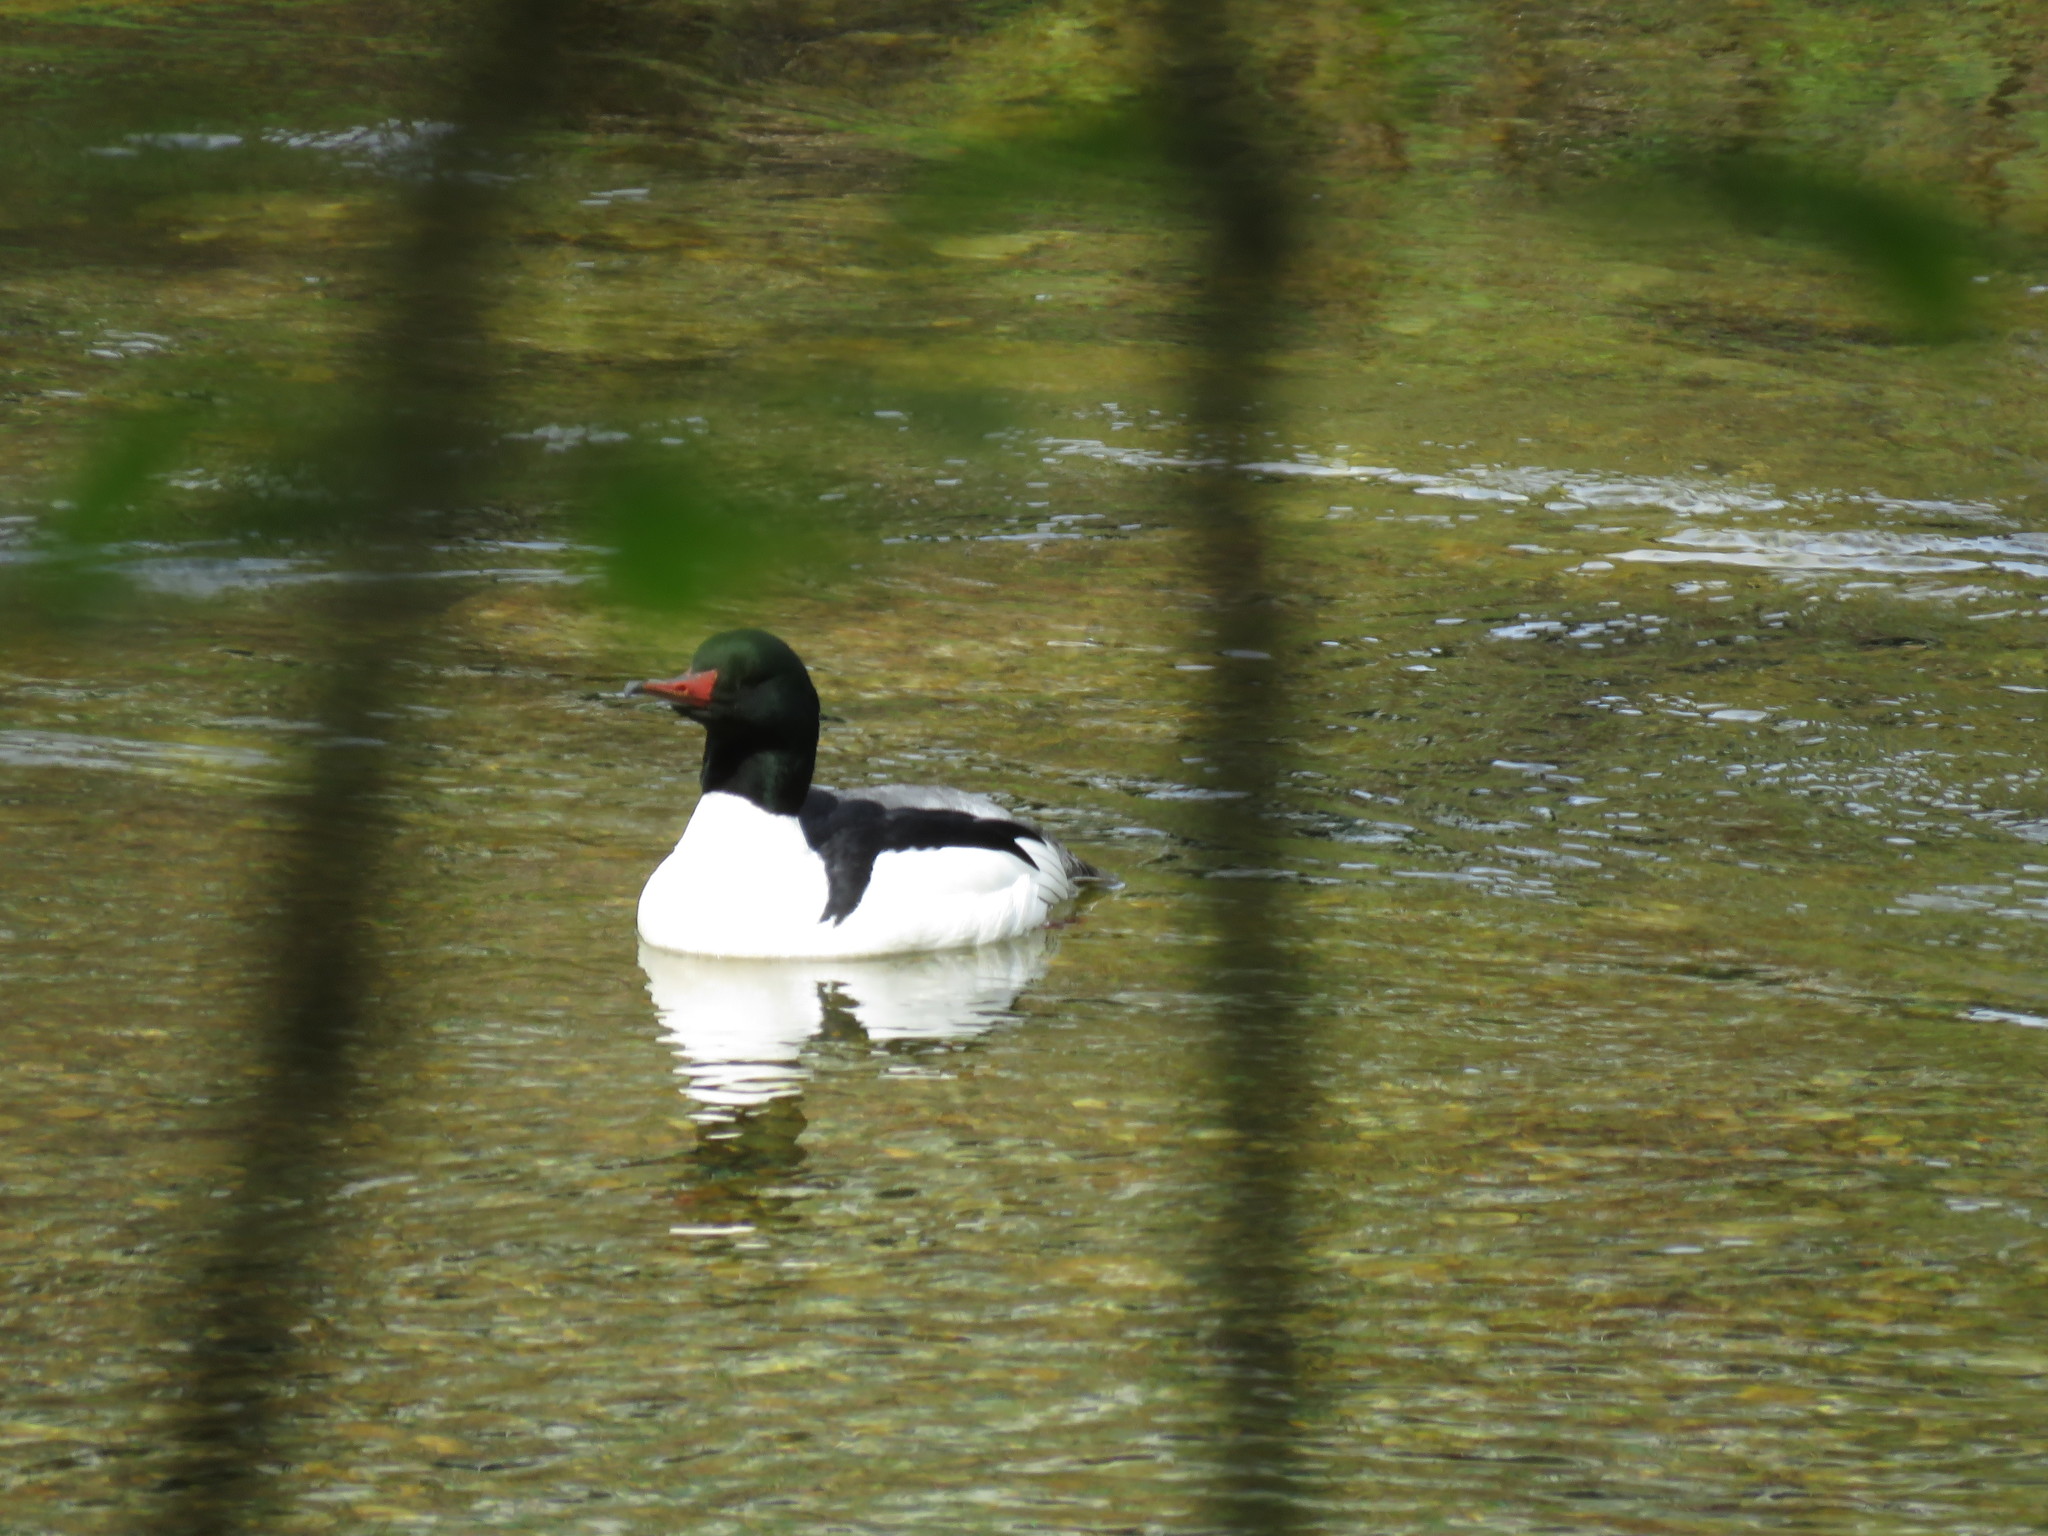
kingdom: Animalia
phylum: Chordata
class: Aves
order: Anseriformes
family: Anatidae
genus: Mergus
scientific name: Mergus merganser
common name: Common merganser
